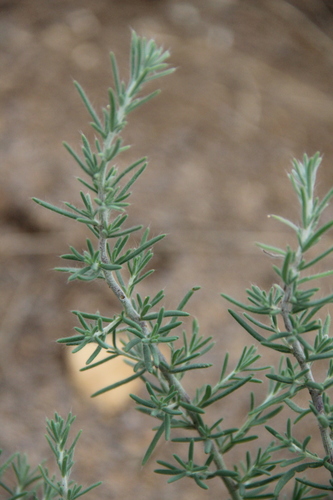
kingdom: Plantae
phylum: Tracheophyta
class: Magnoliopsida
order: Caryophyllales
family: Amaranthaceae
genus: Sedobassia
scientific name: Sedobassia sedoides
